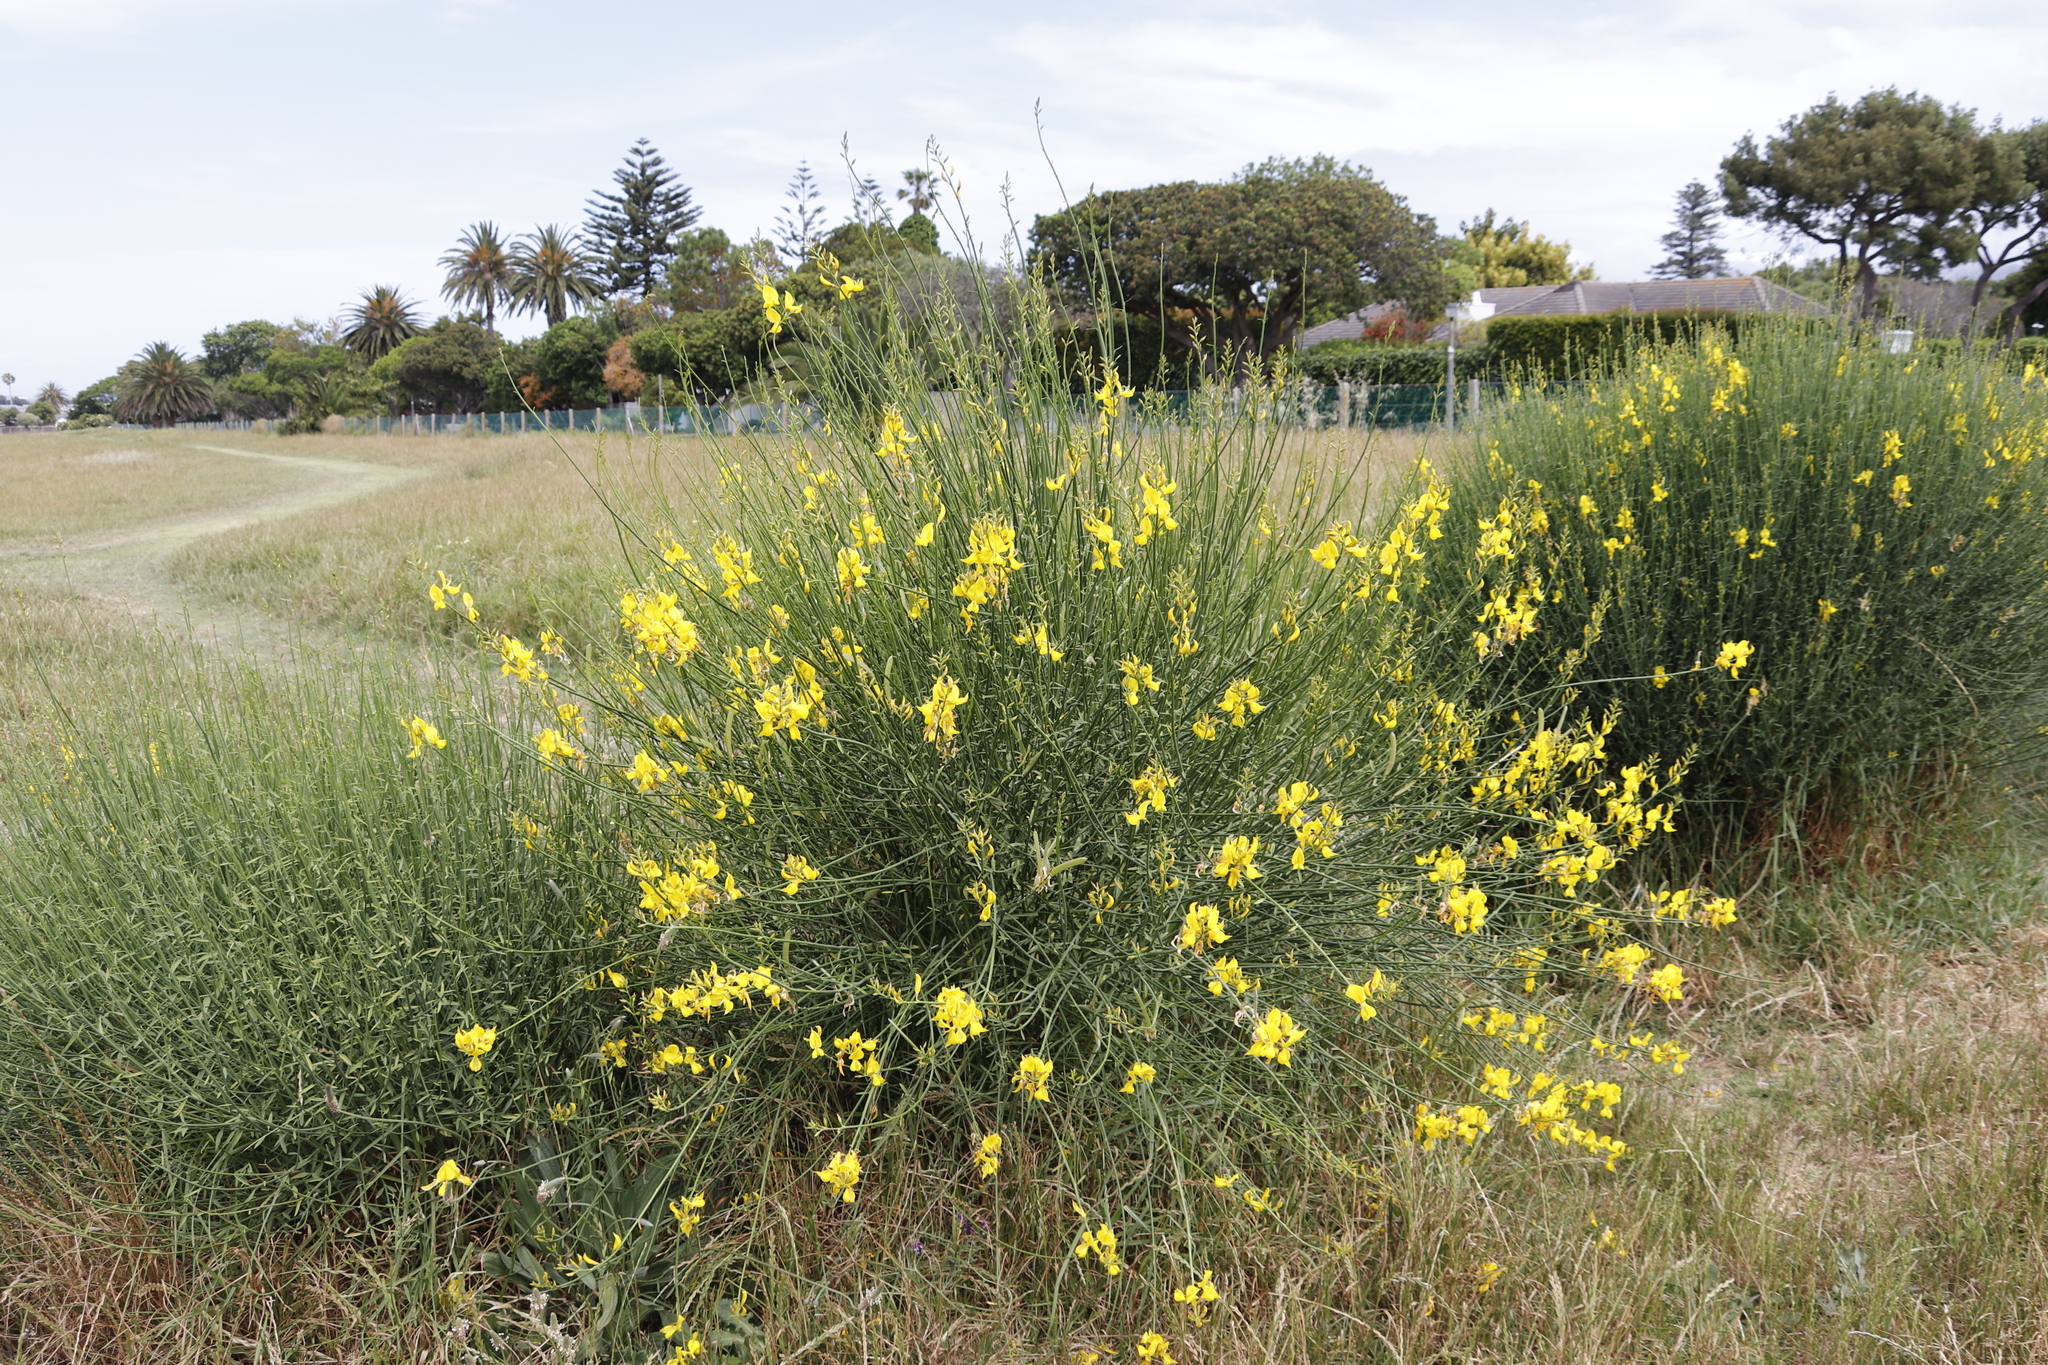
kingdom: Plantae
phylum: Tracheophyta
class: Magnoliopsida
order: Fabales
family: Fabaceae
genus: Spartium
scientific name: Spartium junceum
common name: Spanish broom
